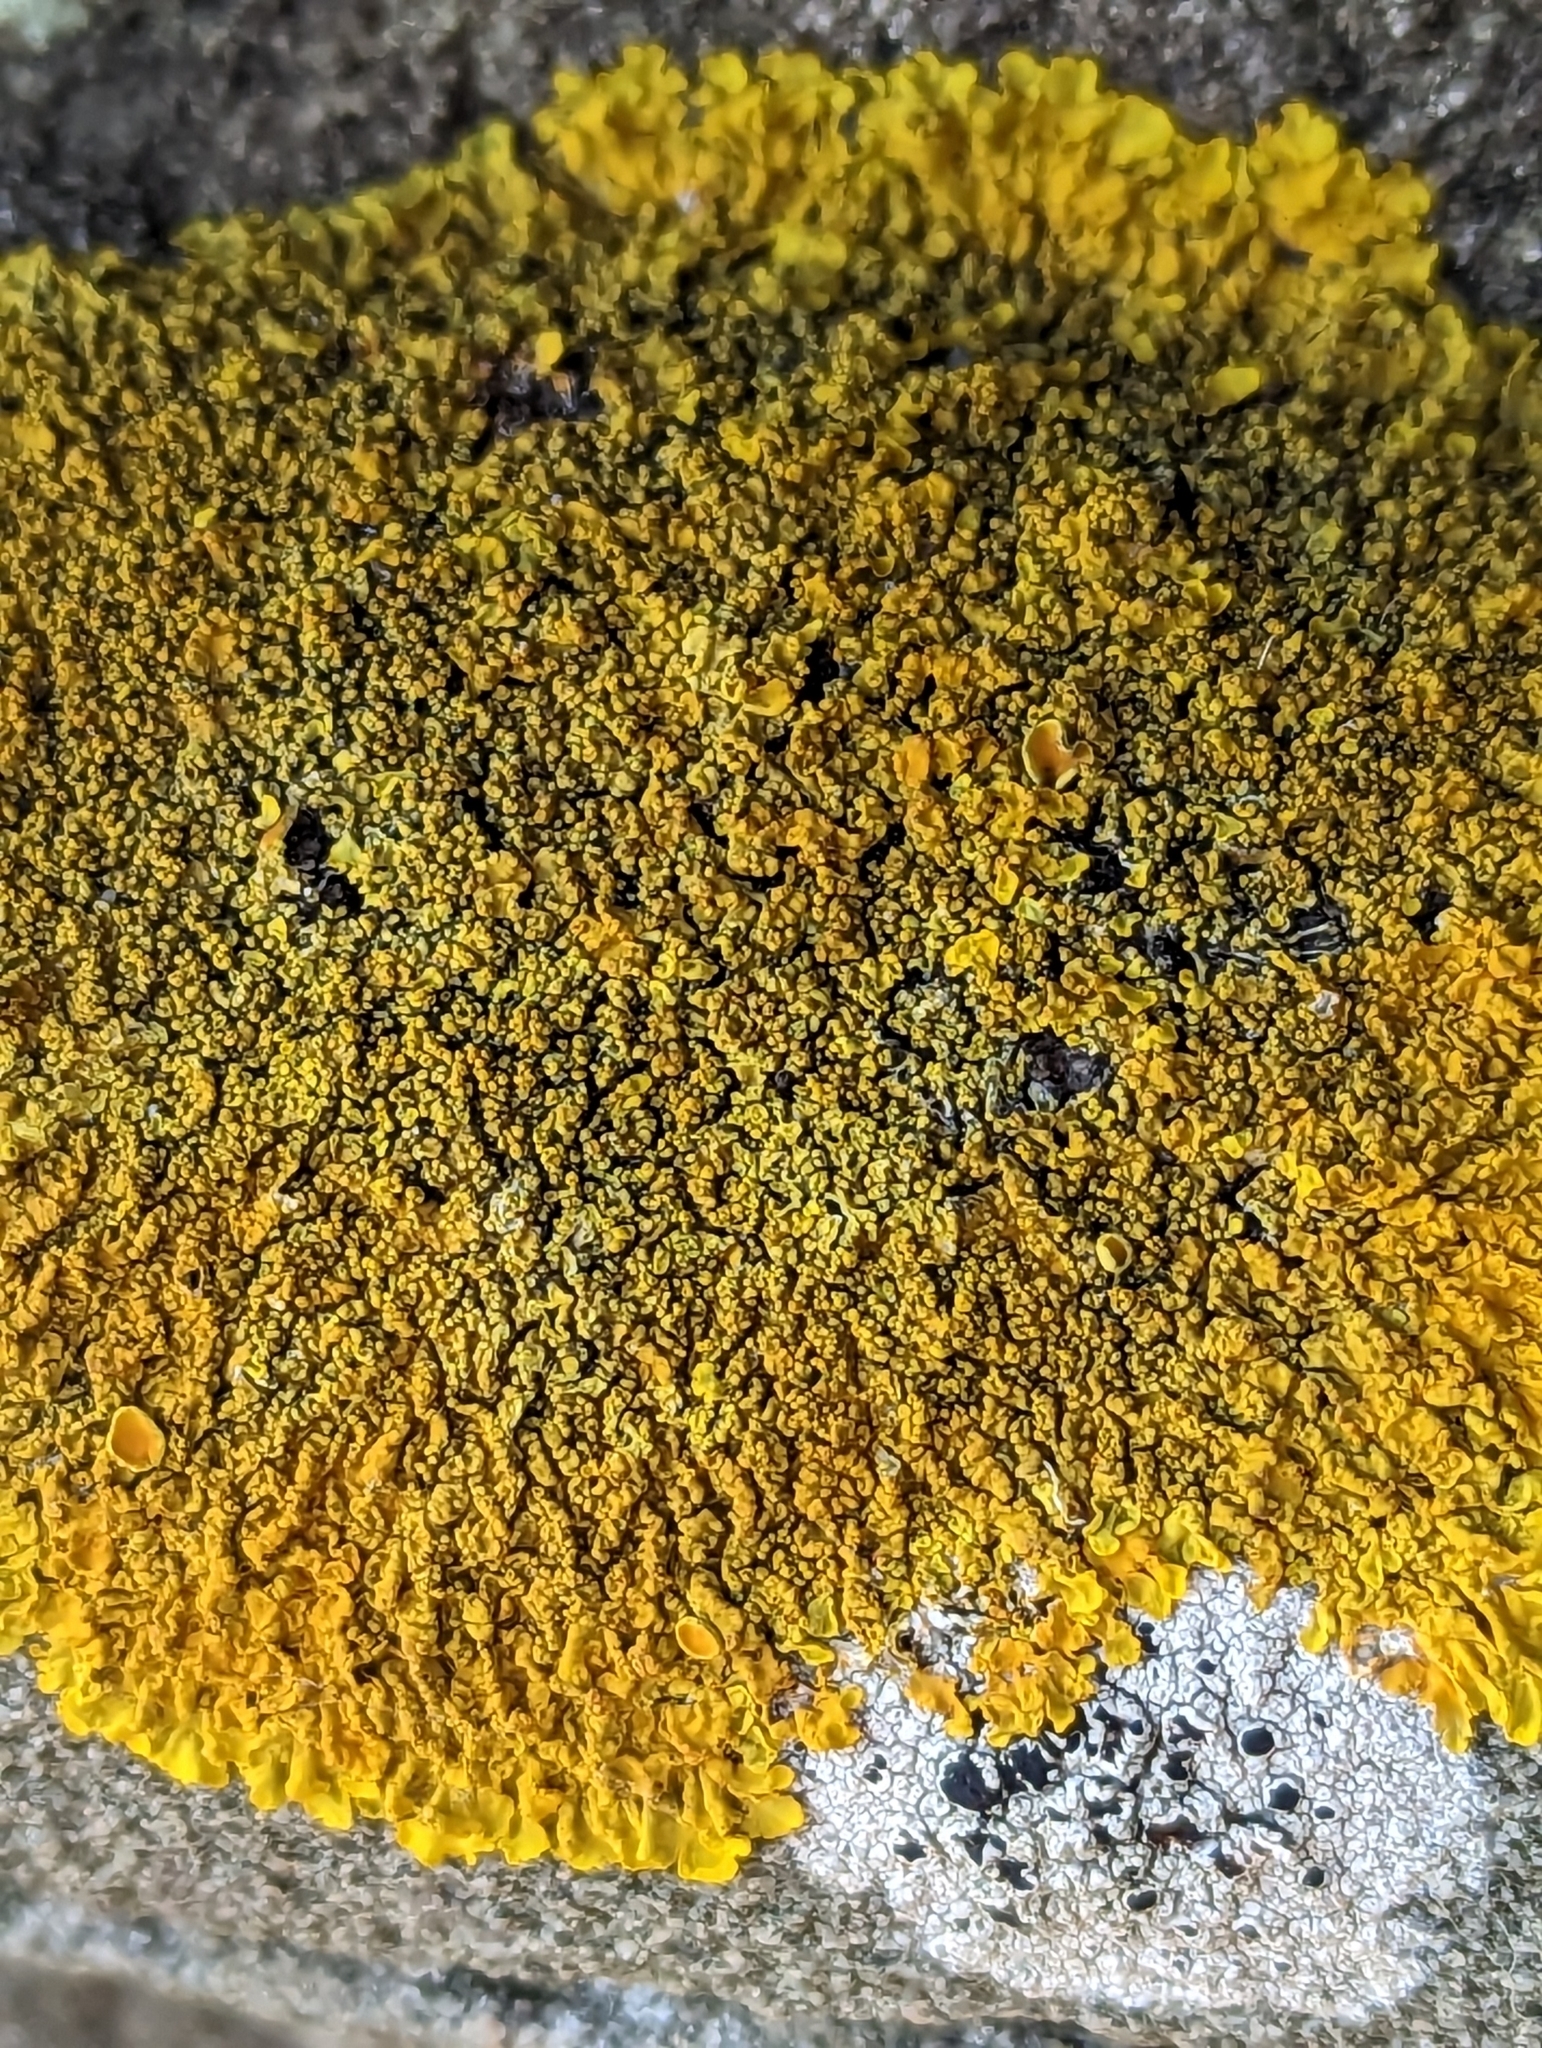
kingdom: Fungi
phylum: Ascomycota
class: Lecanoromycetes
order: Teloschistales
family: Teloschistaceae
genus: Xanthoria
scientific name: Xanthoria calcicola
